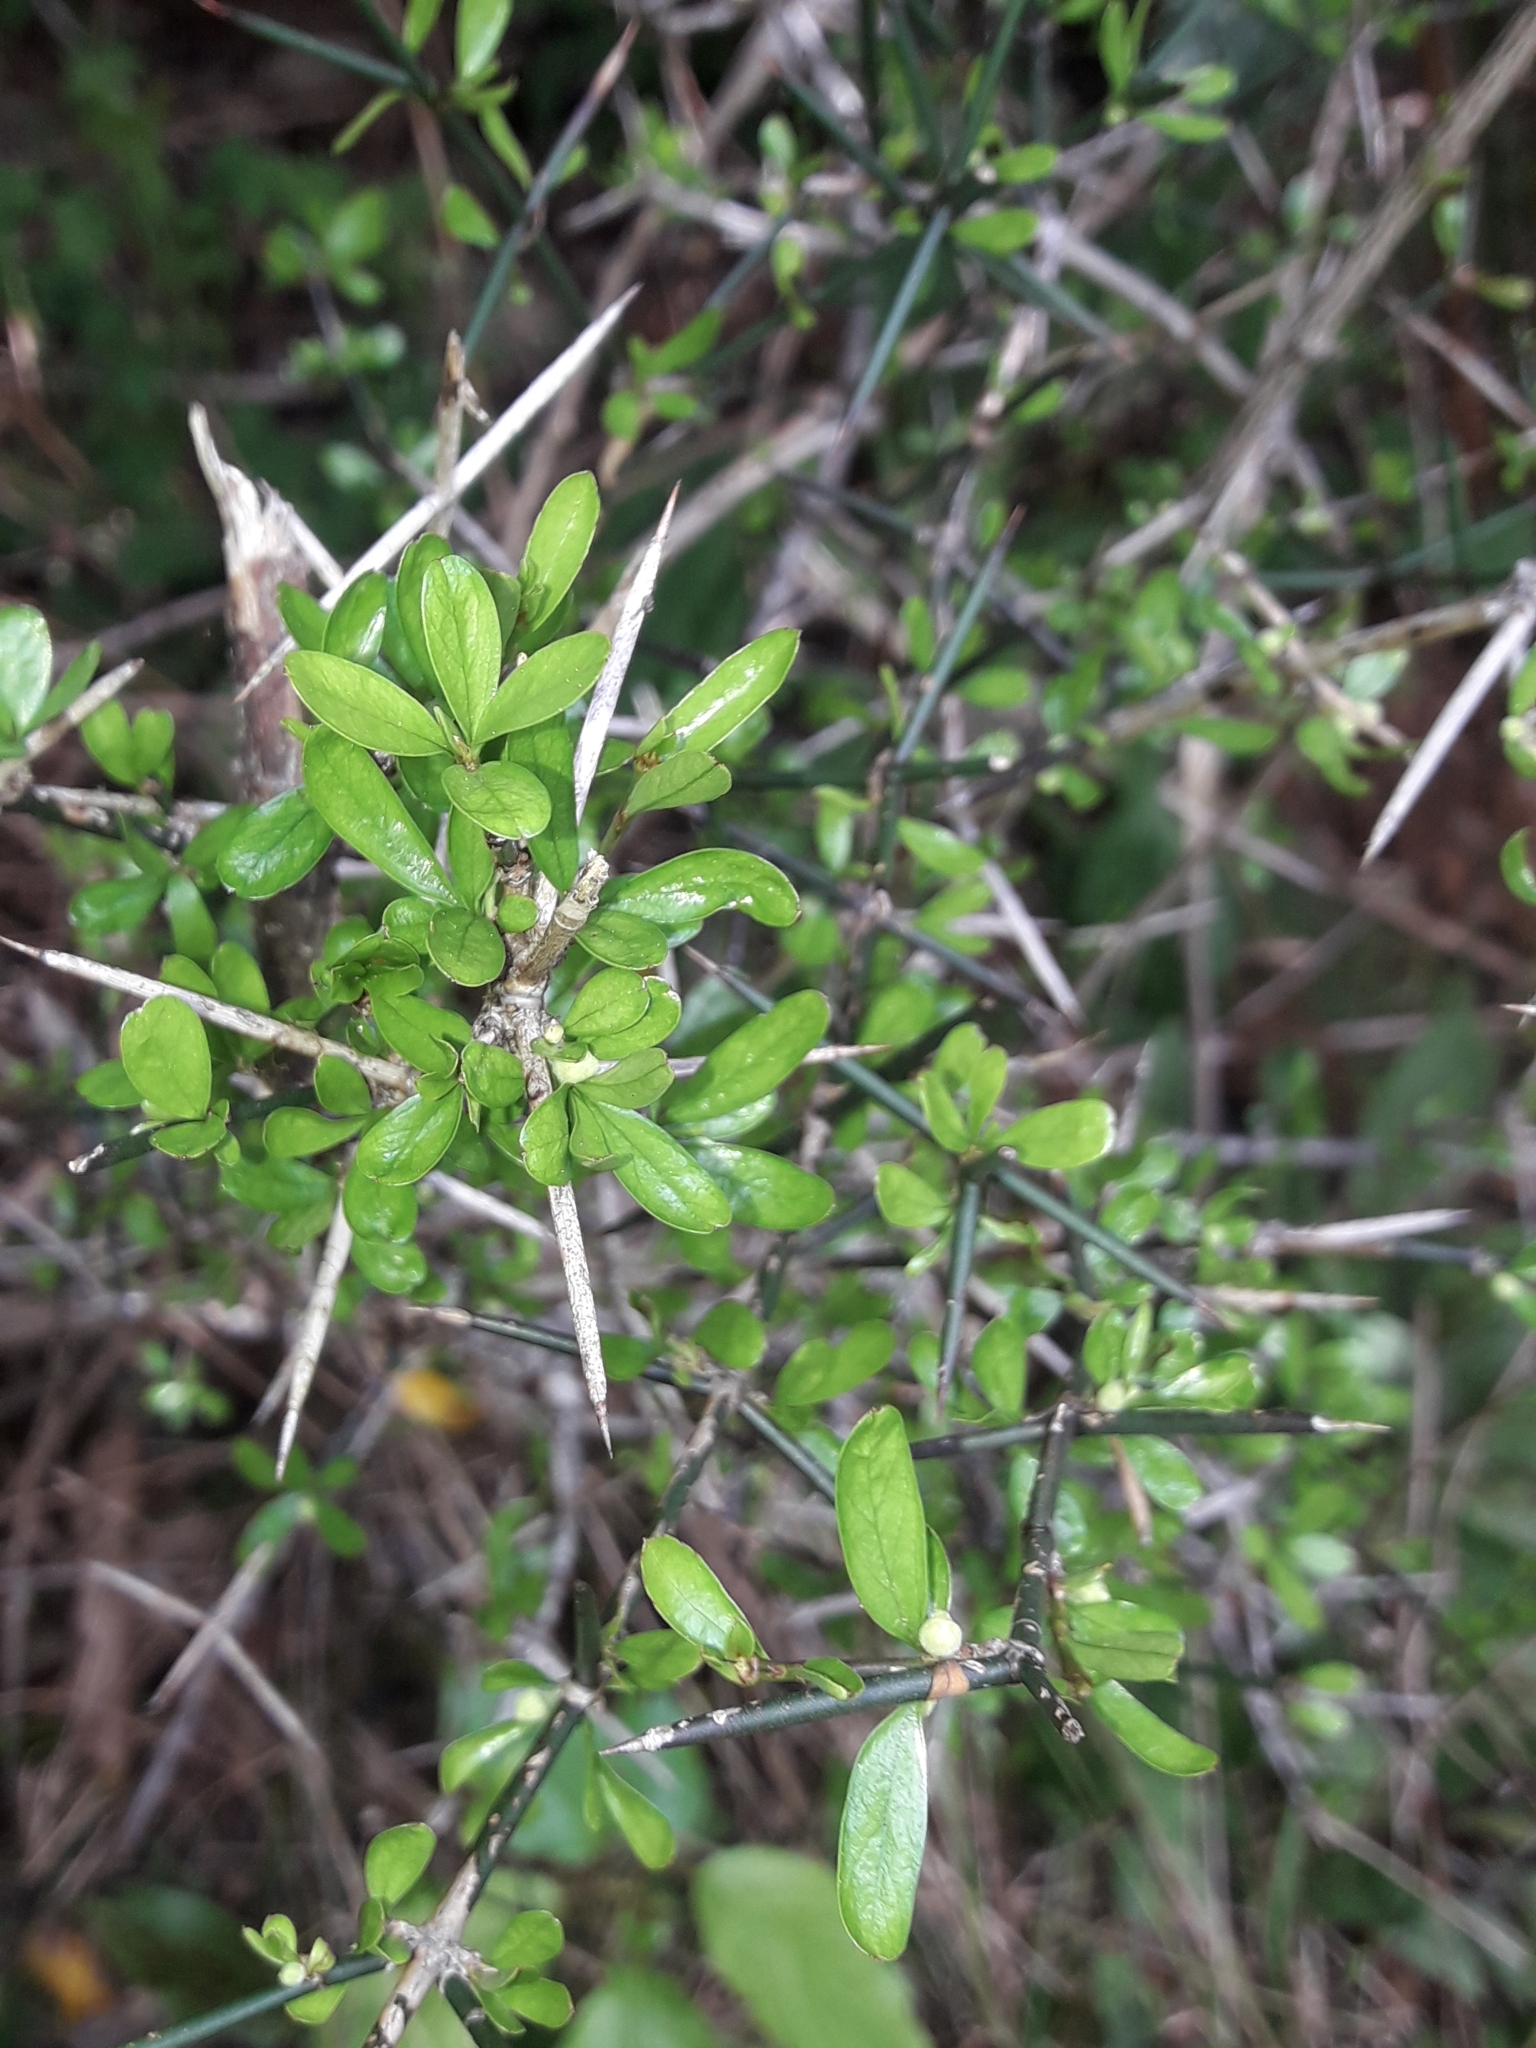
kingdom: Plantae
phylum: Tracheophyta
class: Magnoliopsida
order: Rosales
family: Rhamnaceae
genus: Discaria
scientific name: Discaria toumatou
